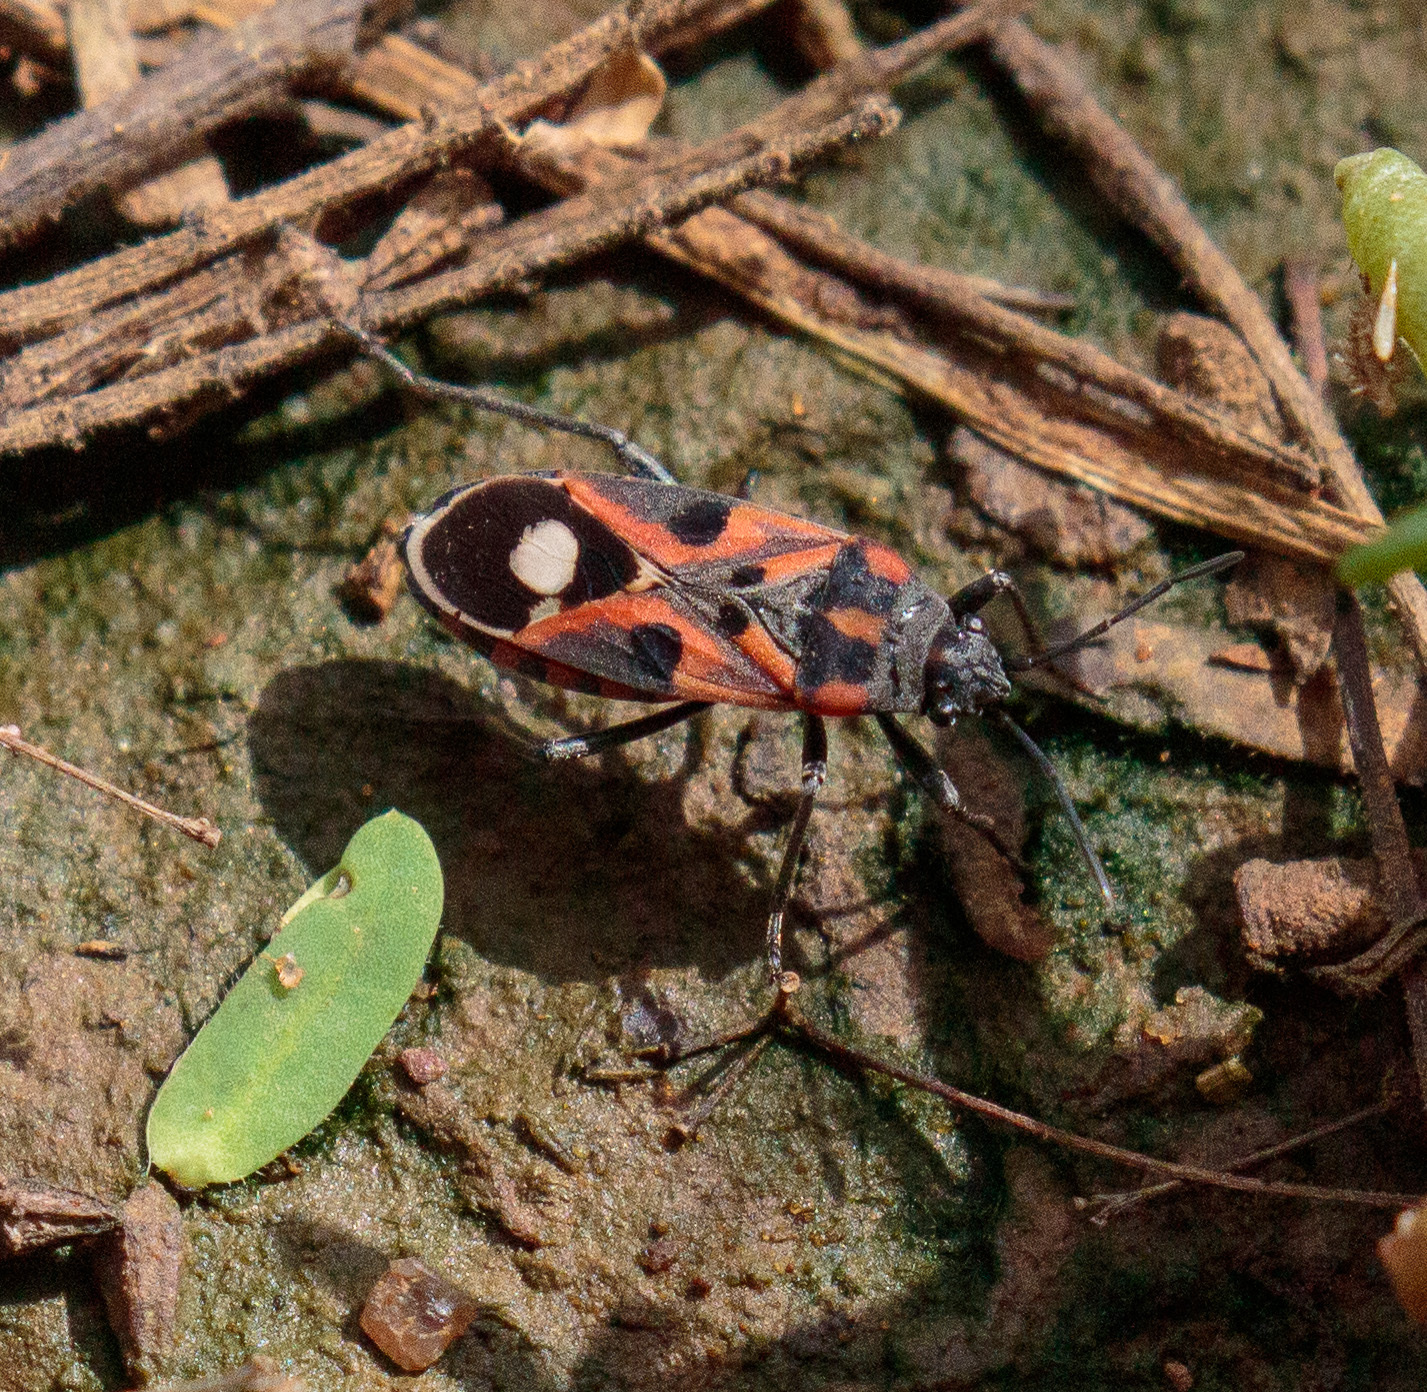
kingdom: Animalia
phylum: Arthropoda
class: Insecta
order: Hemiptera
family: Lygaeidae
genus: Lygaeus
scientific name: Lygaeus alboornatus
